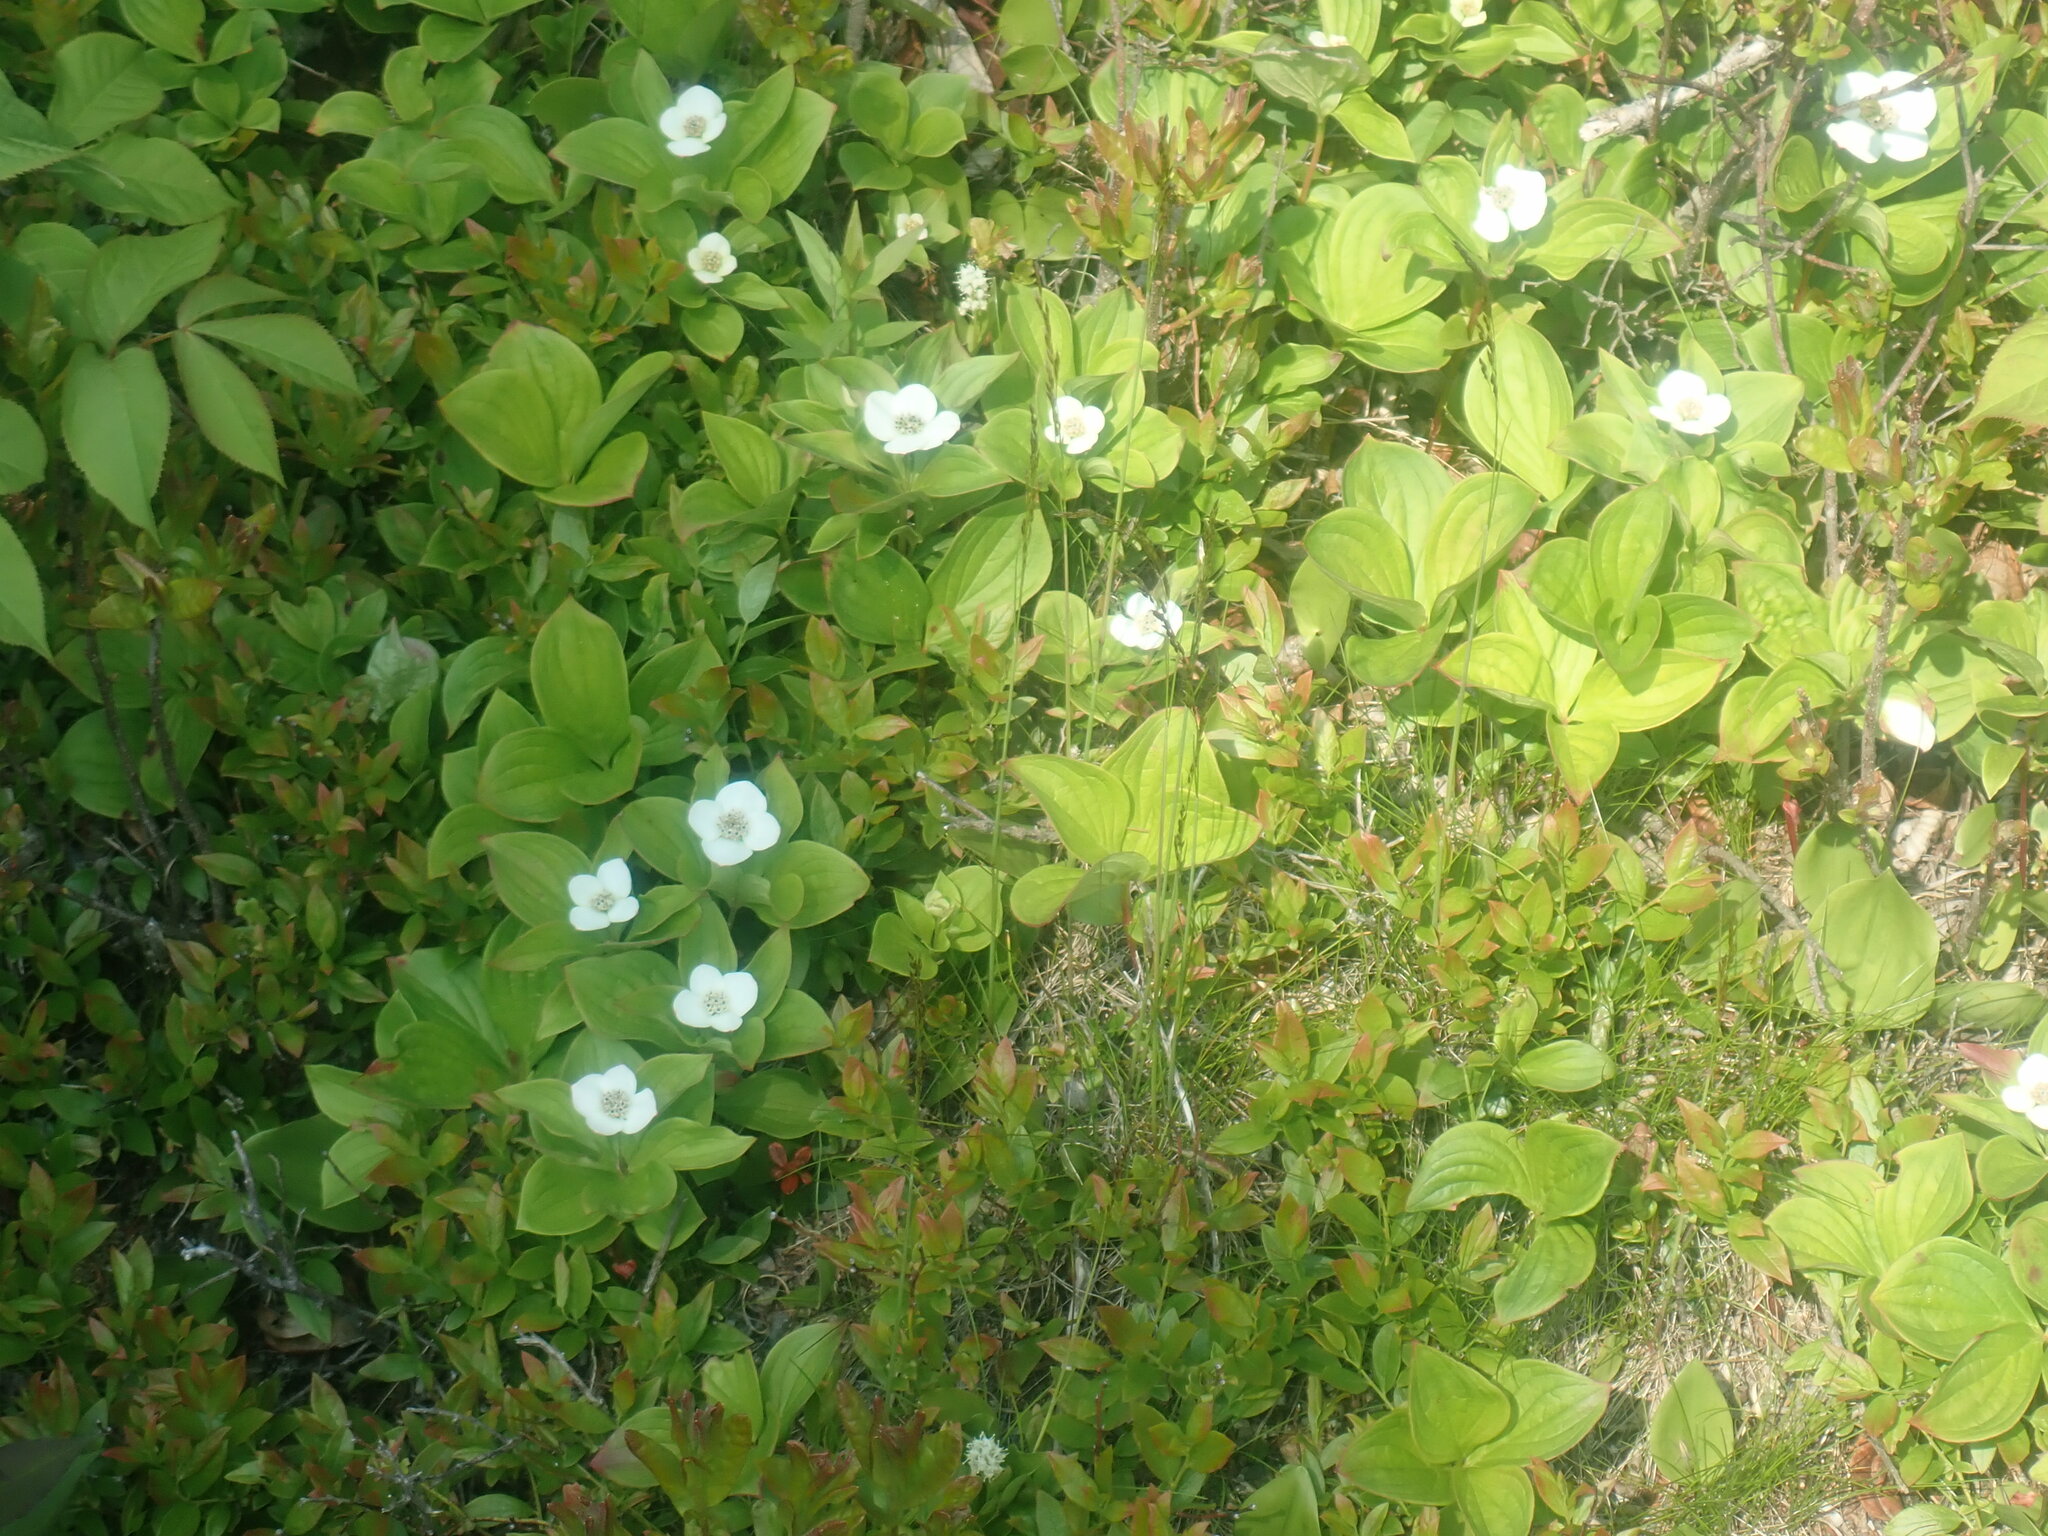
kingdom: Plantae
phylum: Tracheophyta
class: Magnoliopsida
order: Cornales
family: Cornaceae
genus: Cornus
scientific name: Cornus canadensis
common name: Creeping dogwood
